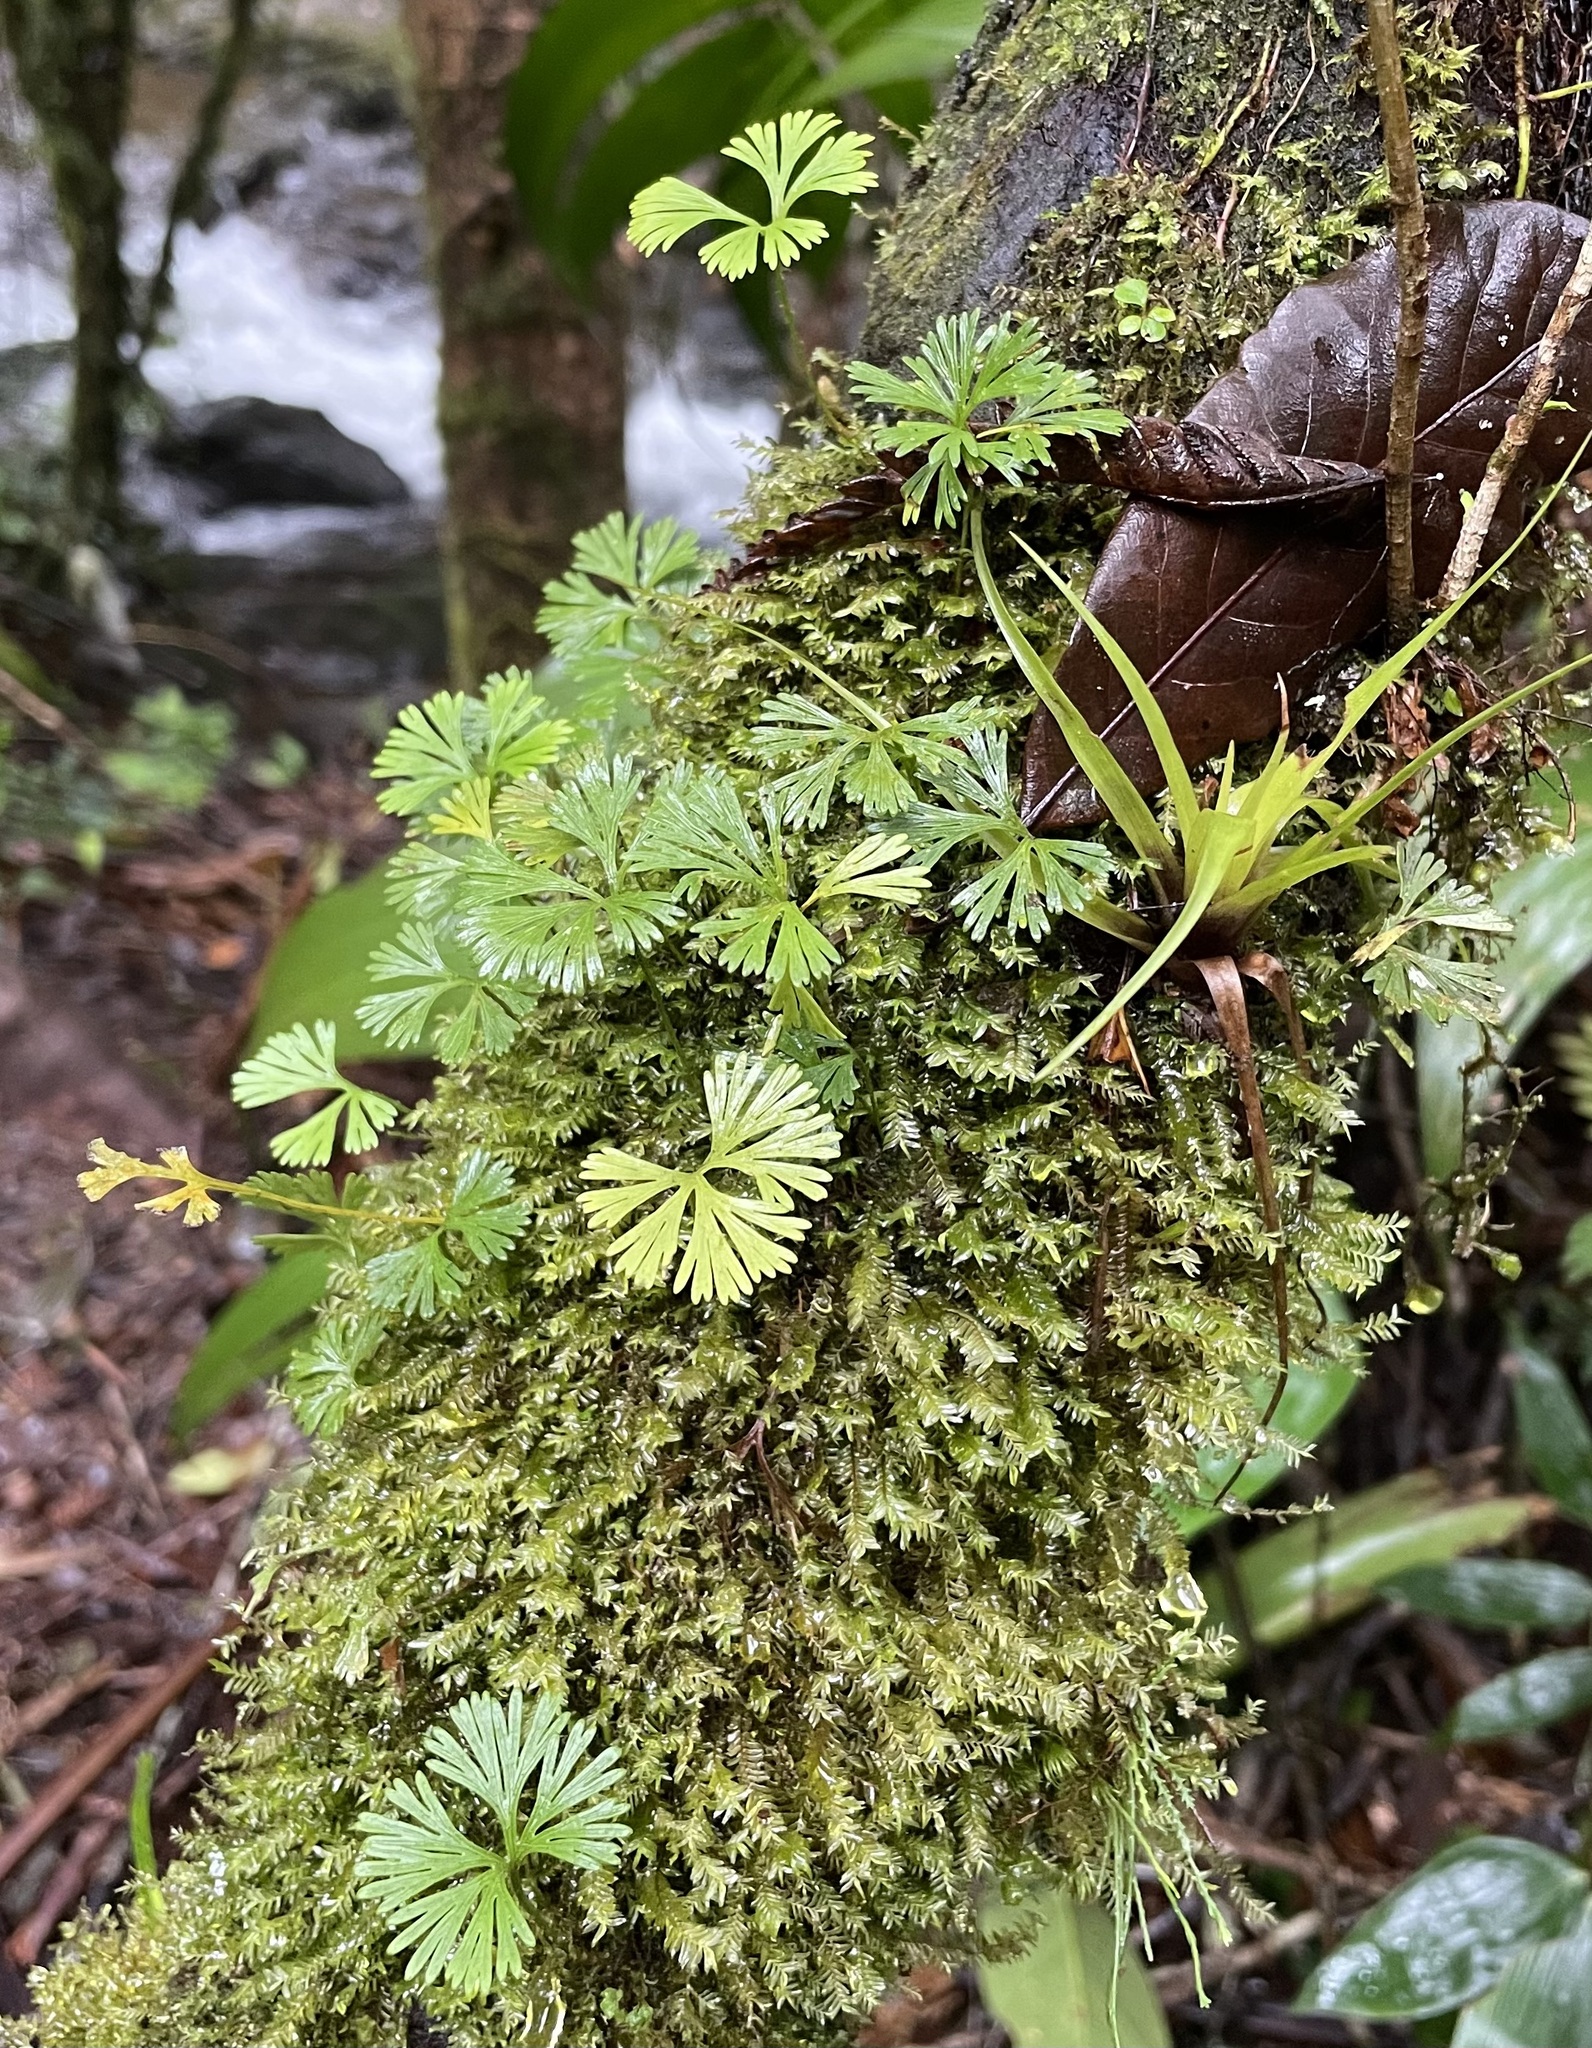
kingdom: Plantae
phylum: Tracheophyta
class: Polypodiopsida
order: Polypodiales
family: Dryopteridaceae
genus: Elaphoglossum
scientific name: Elaphoglossum peltatum
